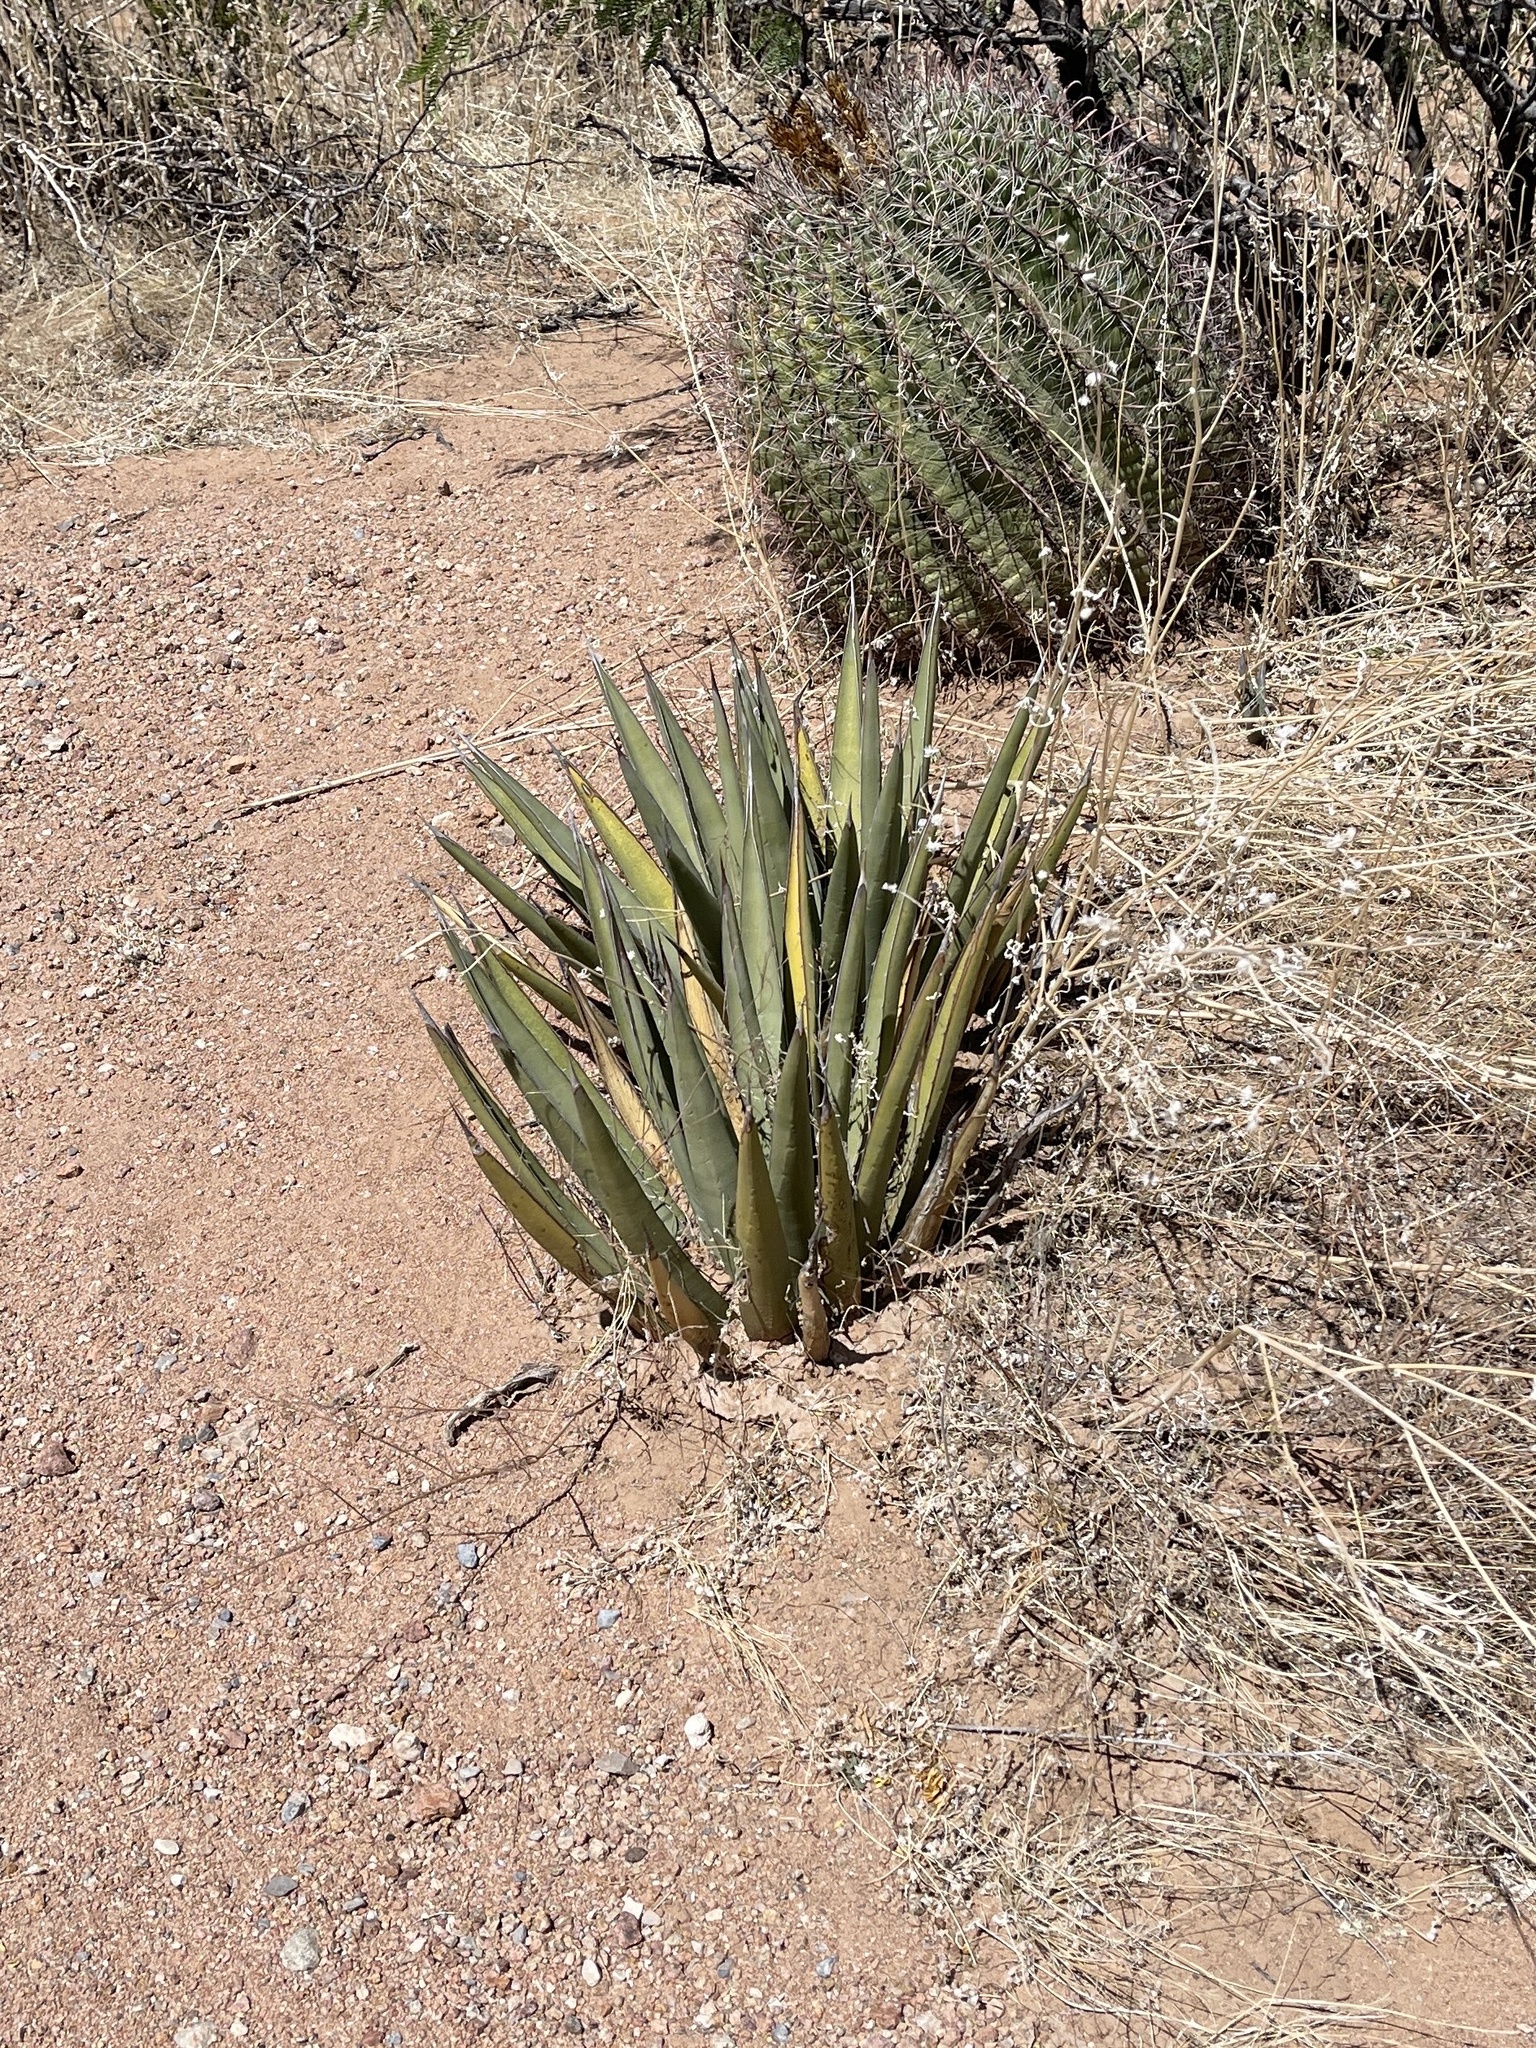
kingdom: Plantae
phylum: Tracheophyta
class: Liliopsida
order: Asparagales
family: Asparagaceae
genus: Agave
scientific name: Agave lechuguilla
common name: Lecheguilla agave
